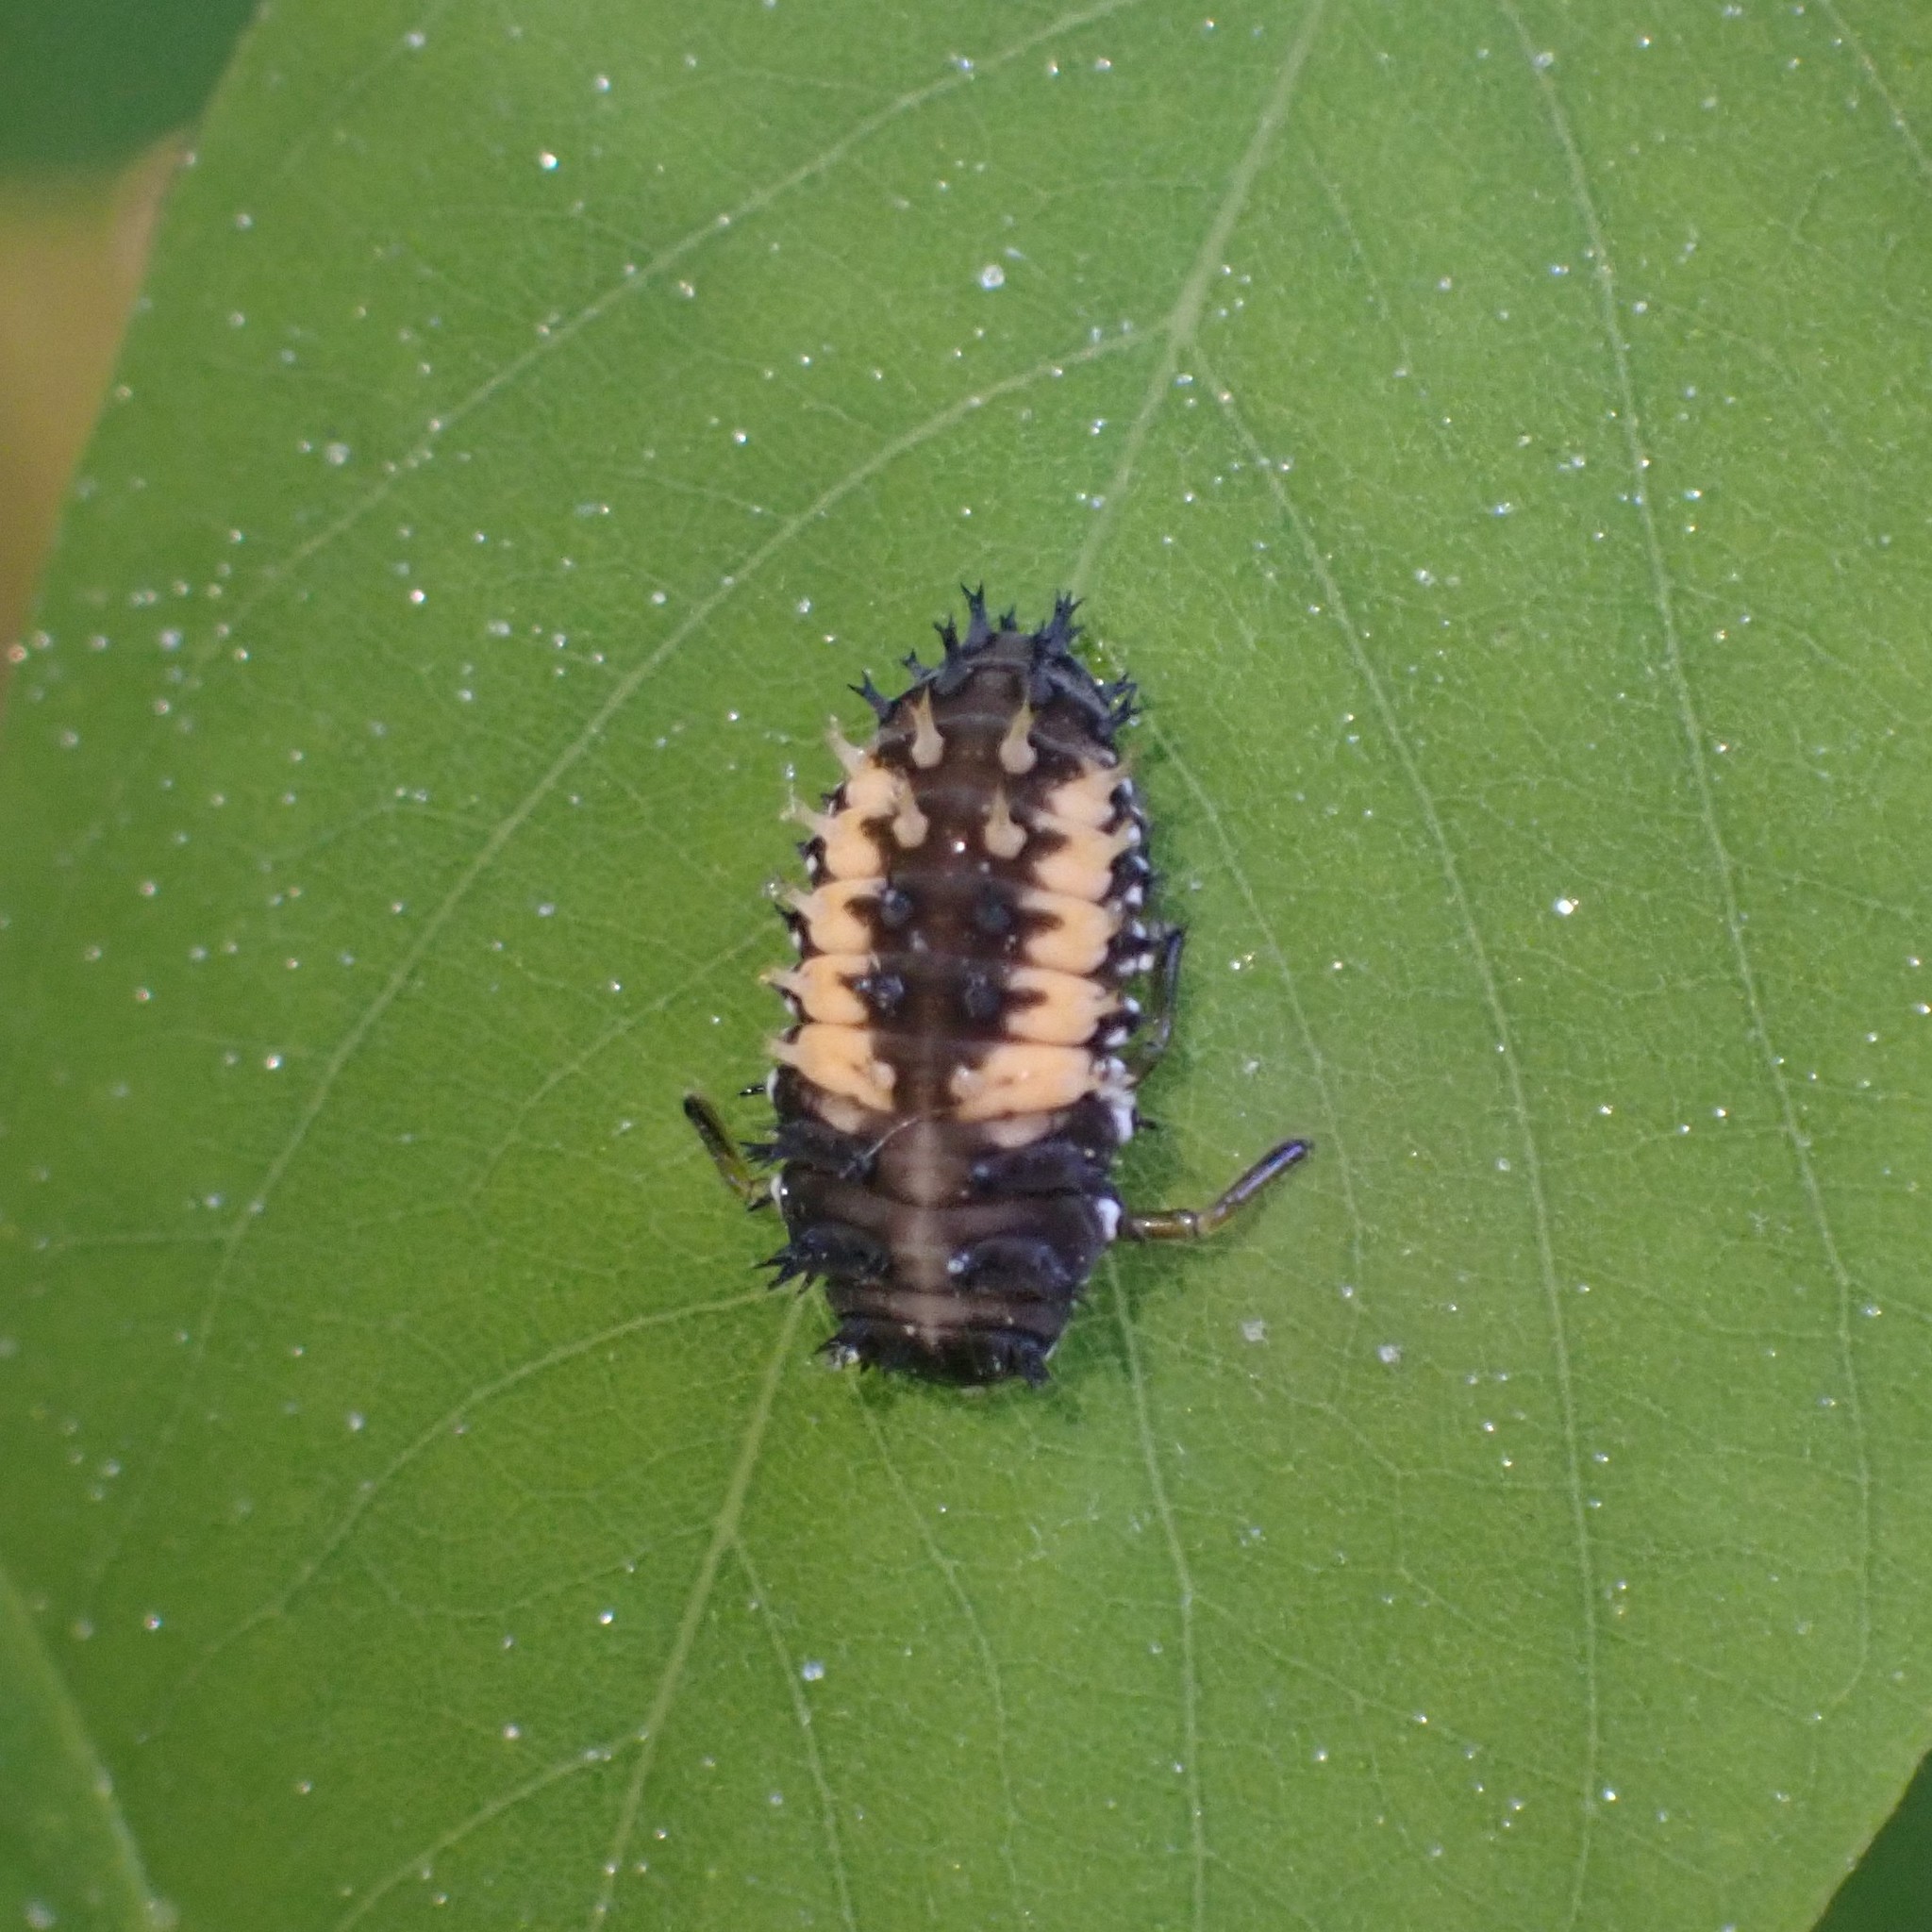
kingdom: Animalia
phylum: Arthropoda
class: Insecta
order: Coleoptera
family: Coccinellidae
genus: Harmonia
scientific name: Harmonia axyridis
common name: Harlequin ladybird
